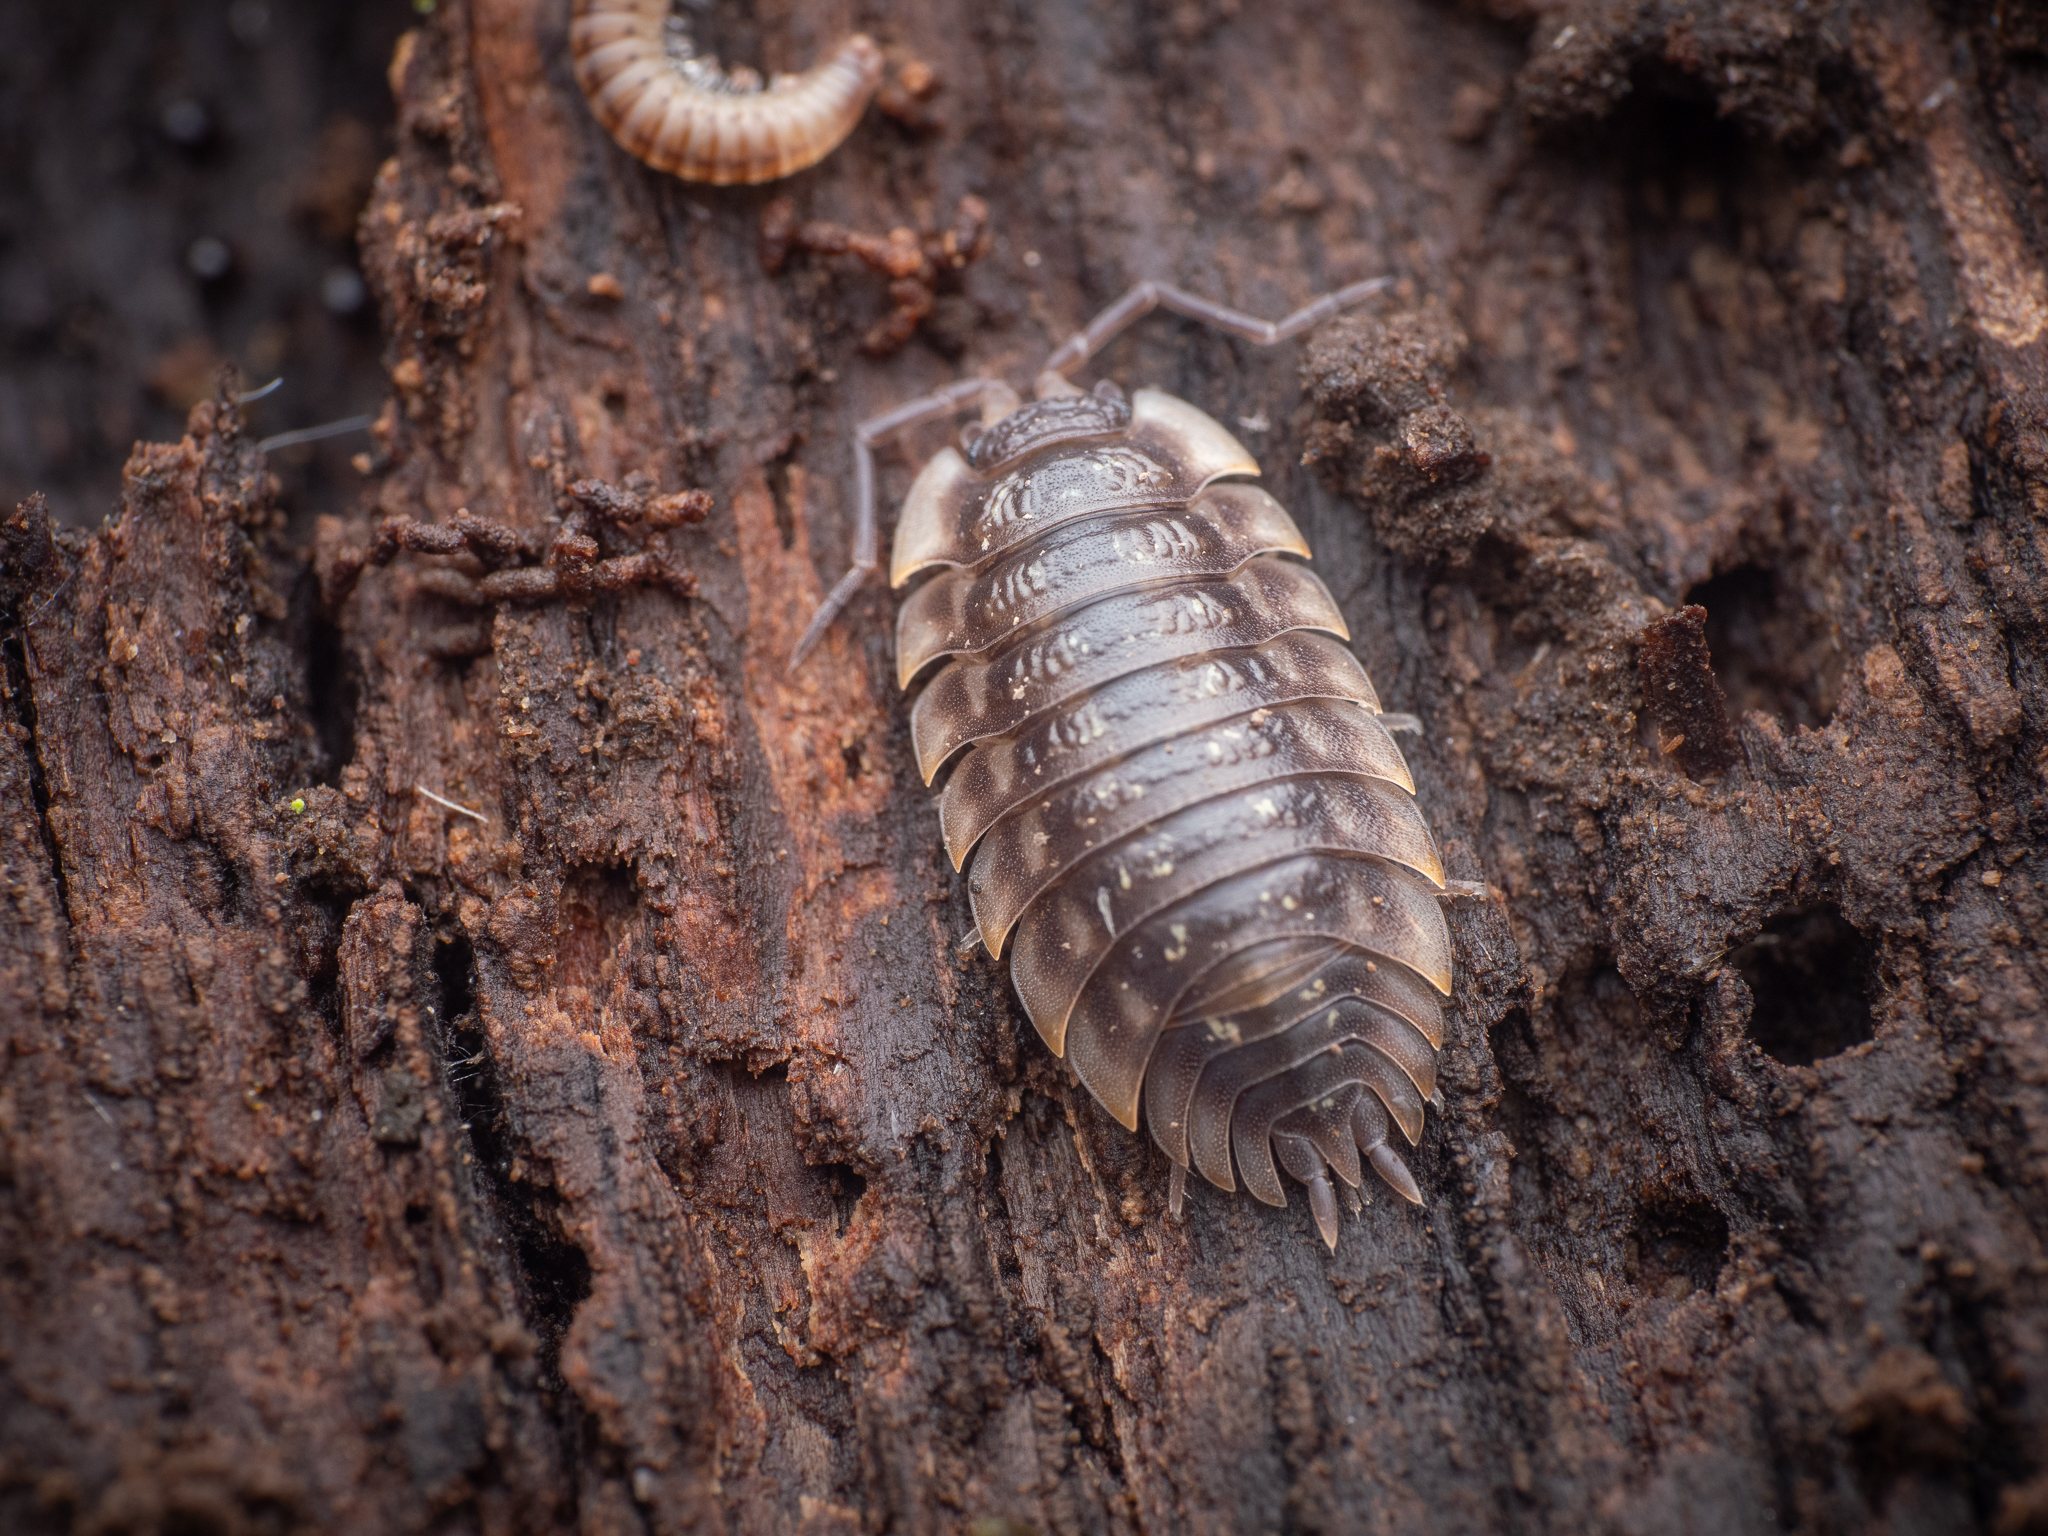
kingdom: Animalia
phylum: Arthropoda
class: Malacostraca
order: Isopoda
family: Oniscidae
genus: Oniscus
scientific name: Oniscus asellus
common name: Common shiny woodlouse
